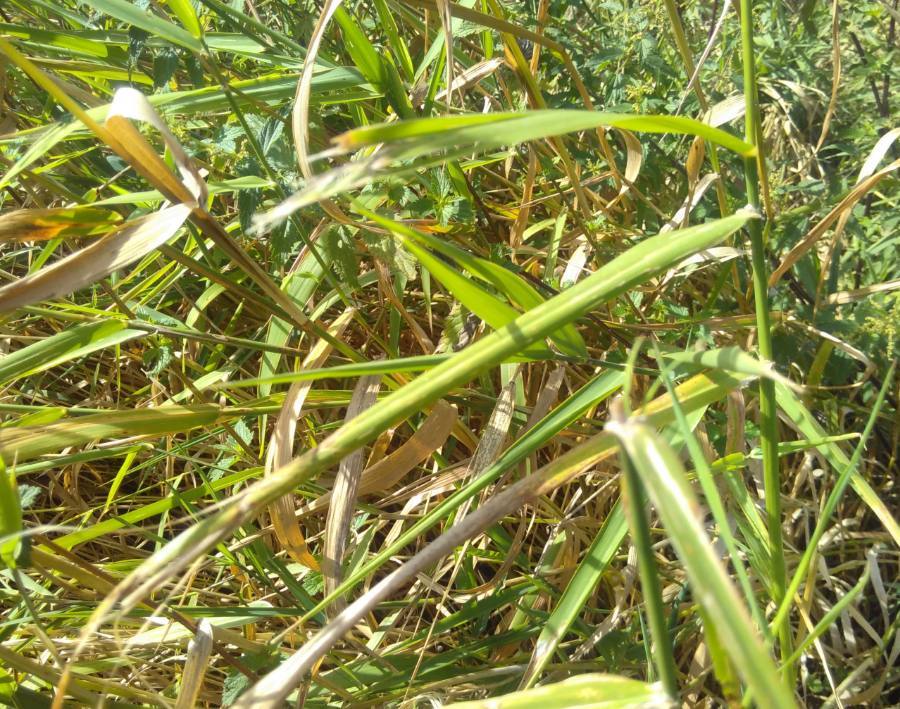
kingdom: Plantae
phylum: Tracheophyta
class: Liliopsida
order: Poales
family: Poaceae
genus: Calamagrostis
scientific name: Calamagrostis epigejos
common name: Wood small-reed
